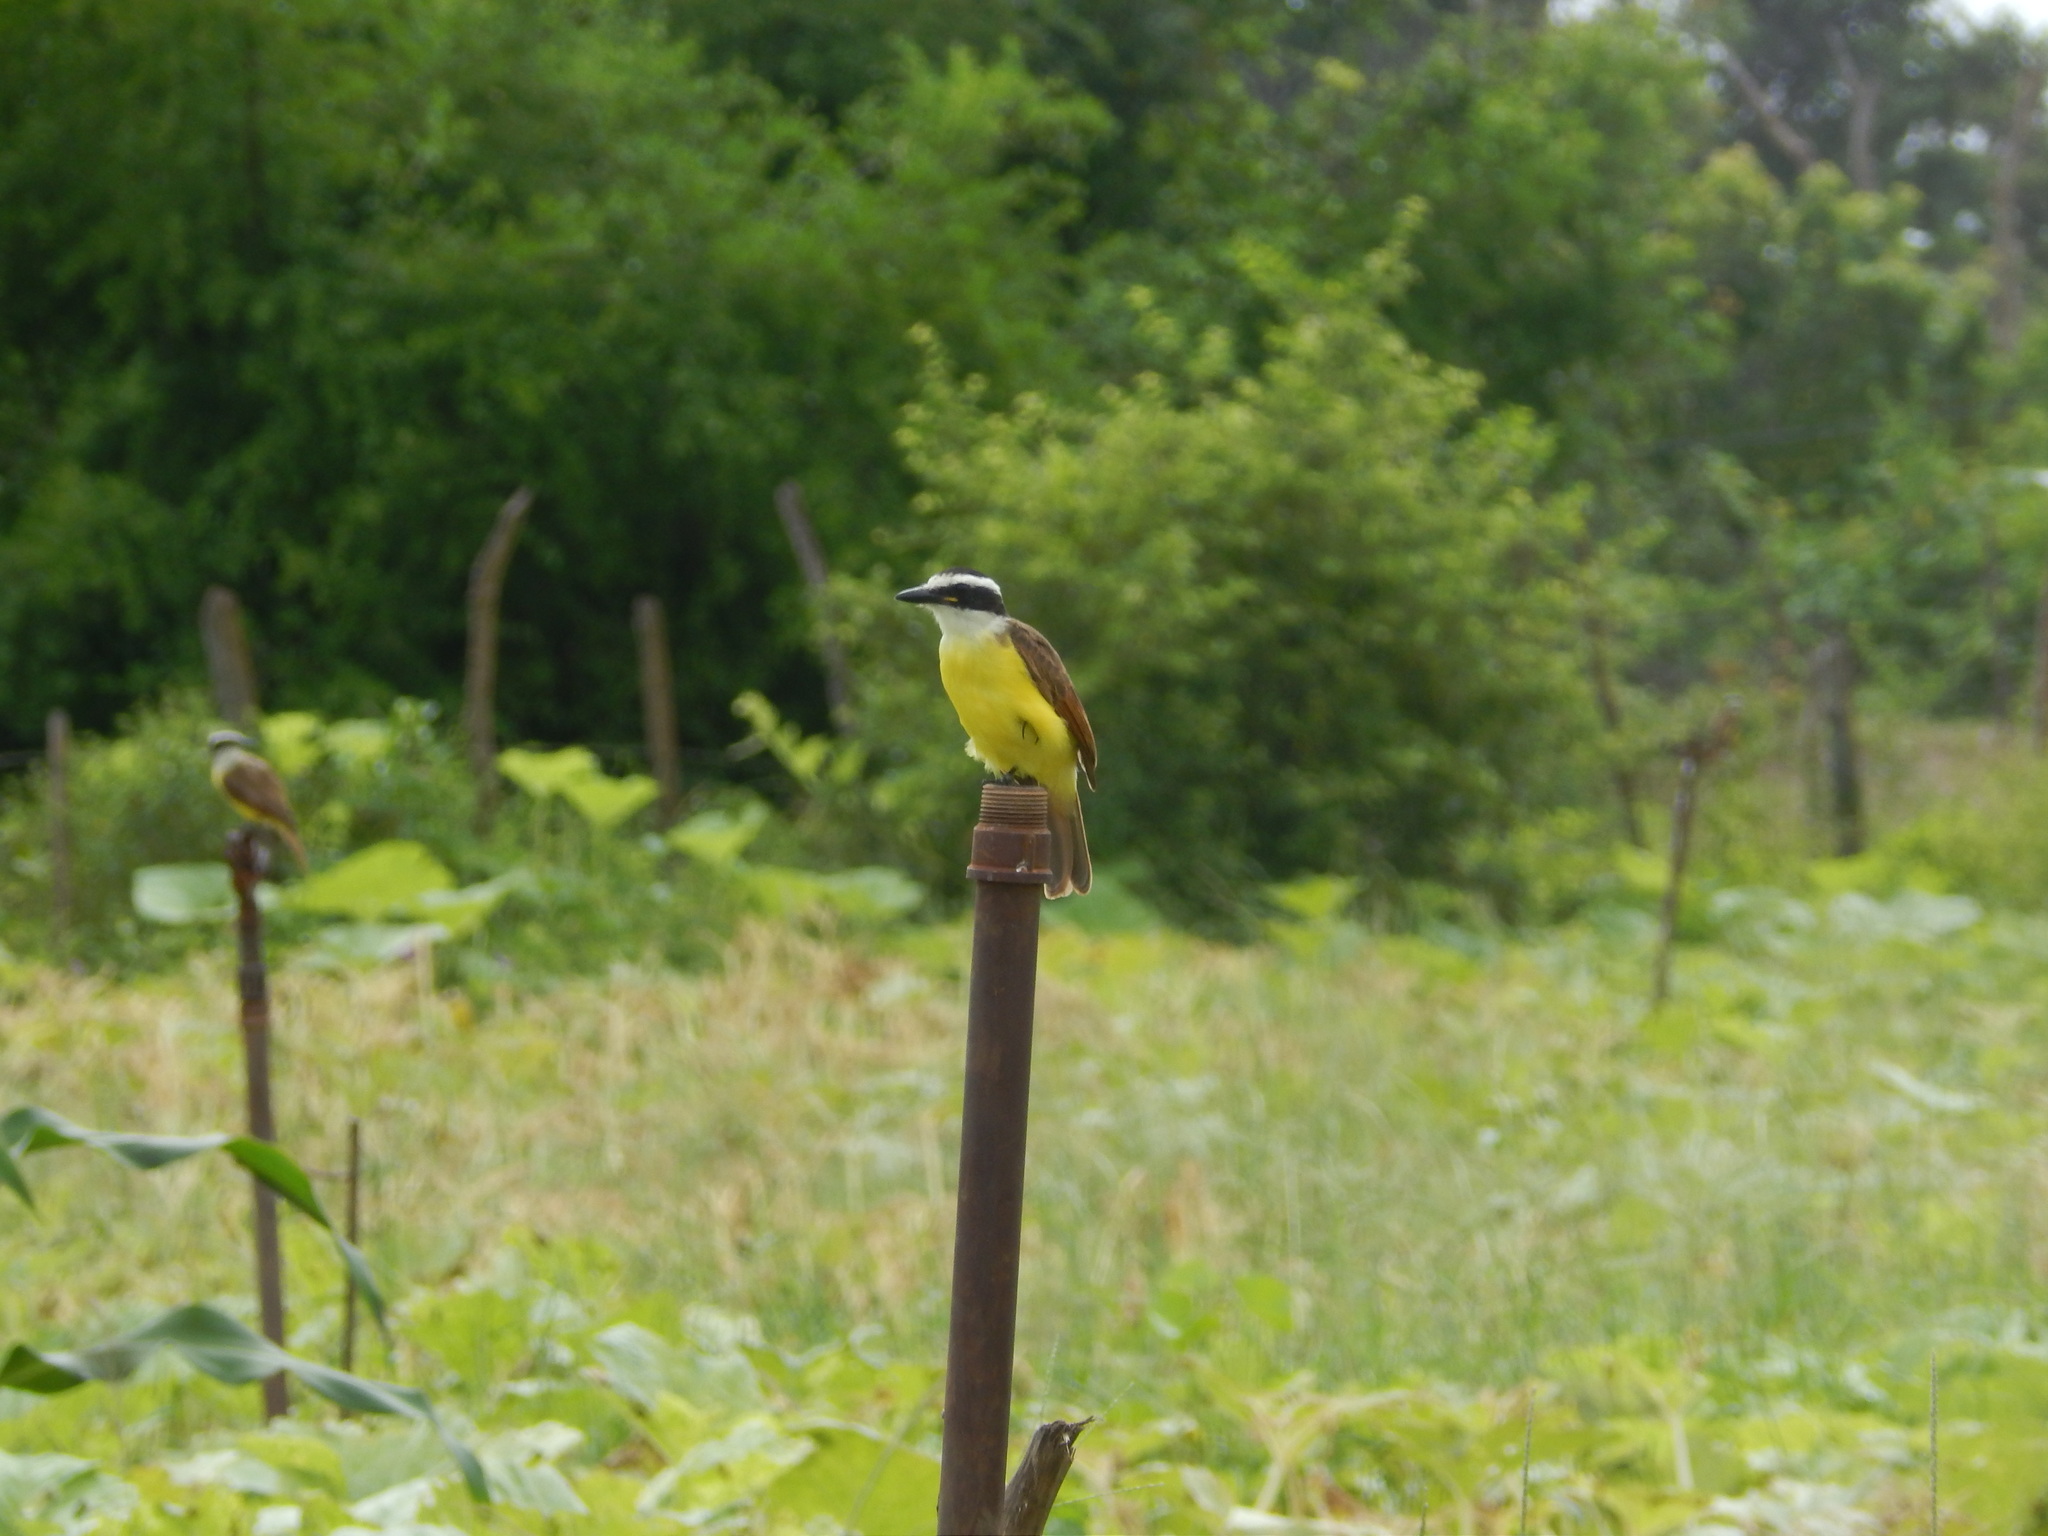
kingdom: Animalia
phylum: Chordata
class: Aves
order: Passeriformes
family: Tyrannidae
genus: Pitangus
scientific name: Pitangus sulphuratus
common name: Great kiskadee
